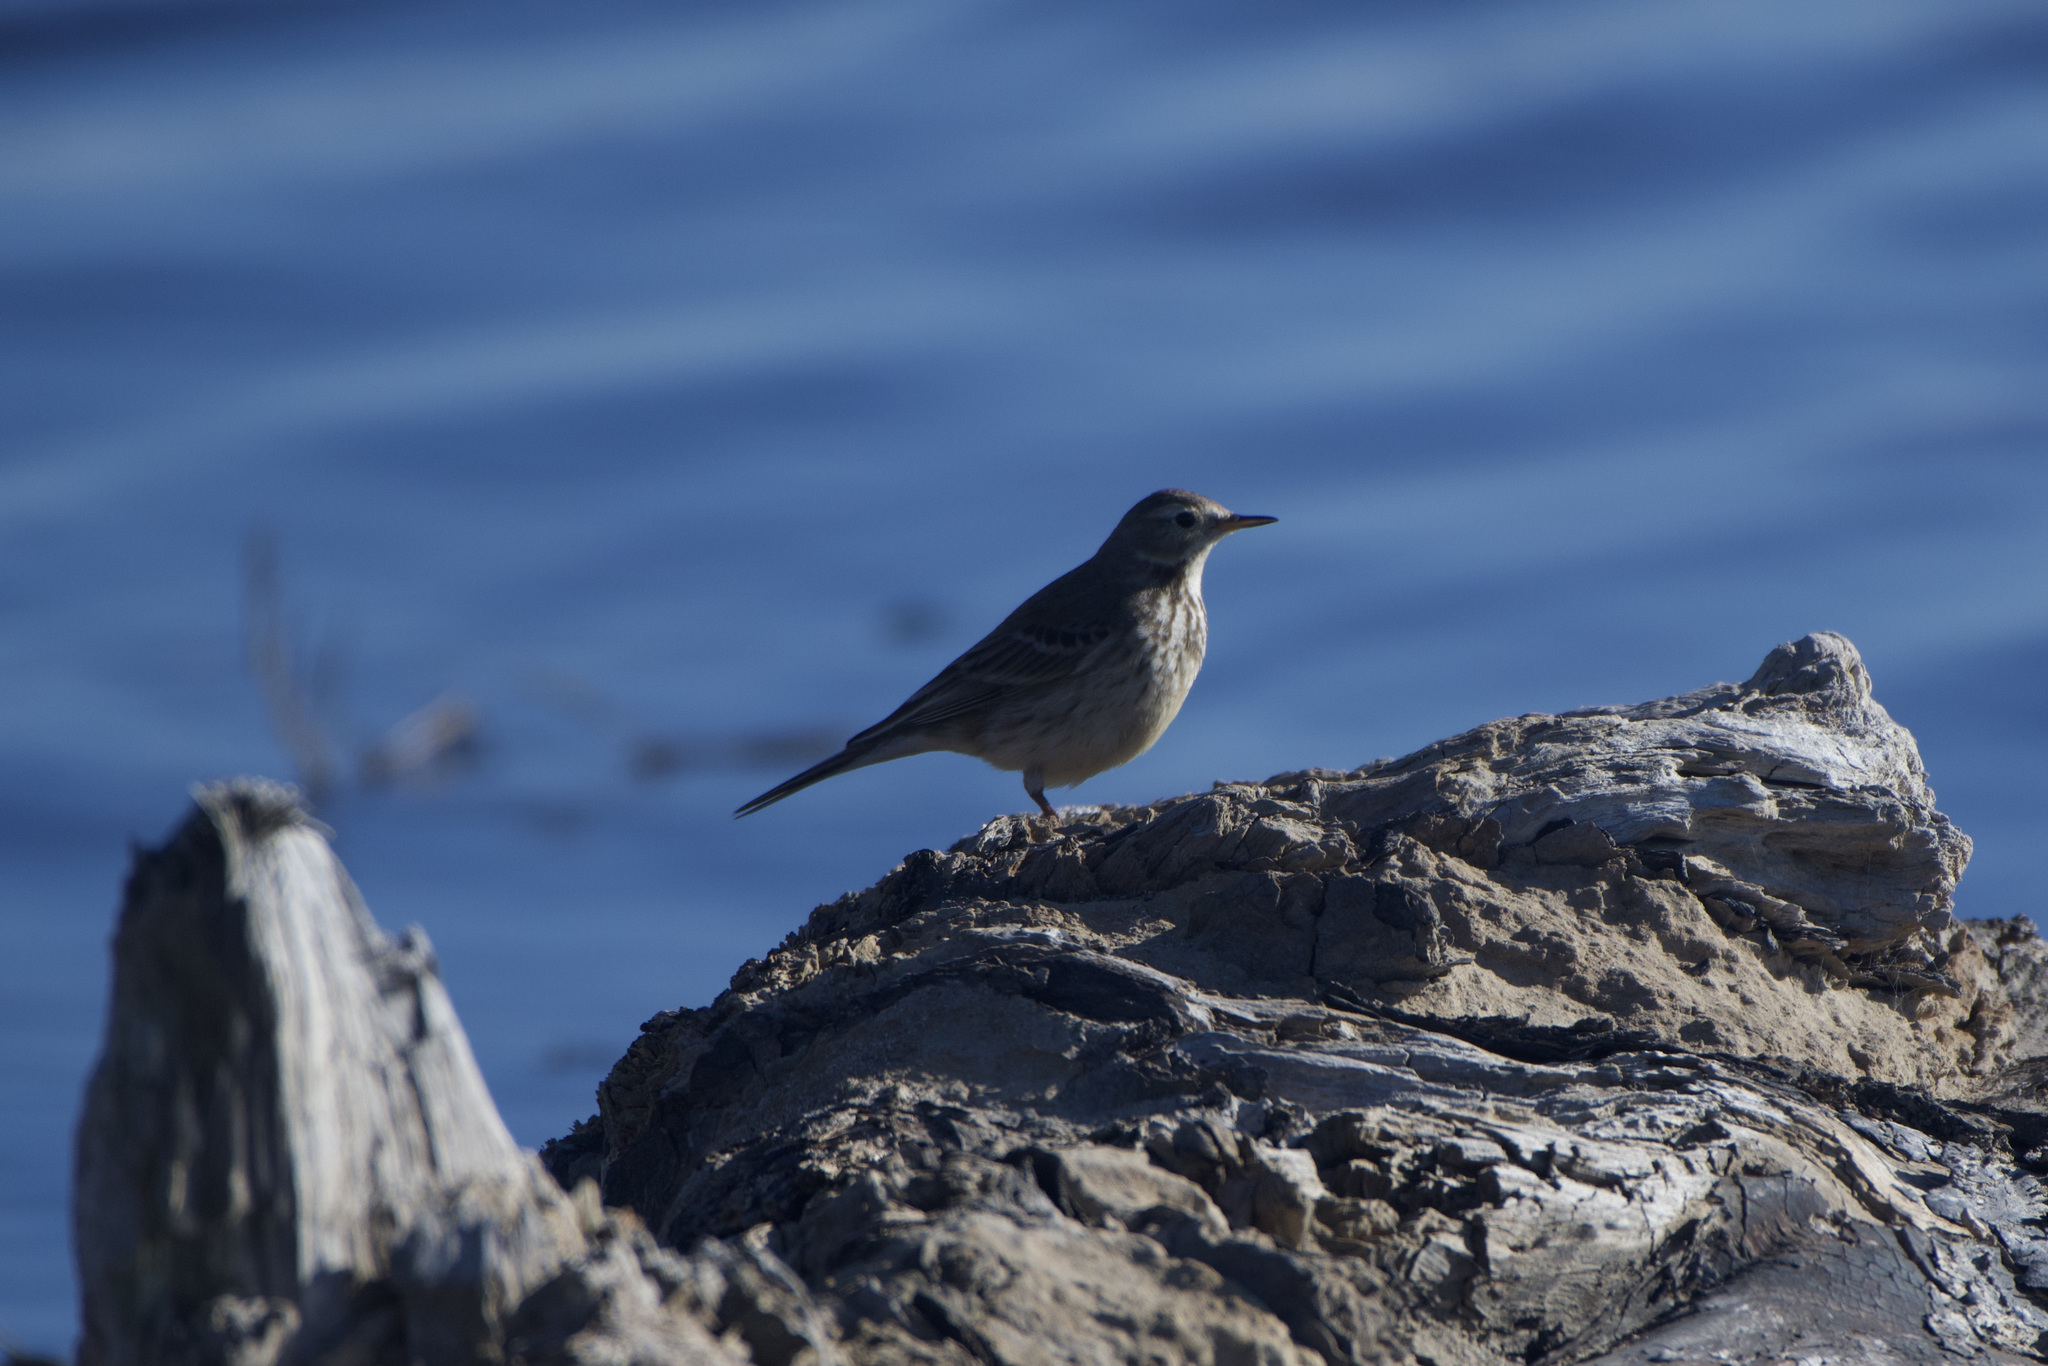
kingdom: Animalia
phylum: Chordata
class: Aves
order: Passeriformes
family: Motacillidae
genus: Anthus
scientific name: Anthus rubescens
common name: Buff-bellied pipit
